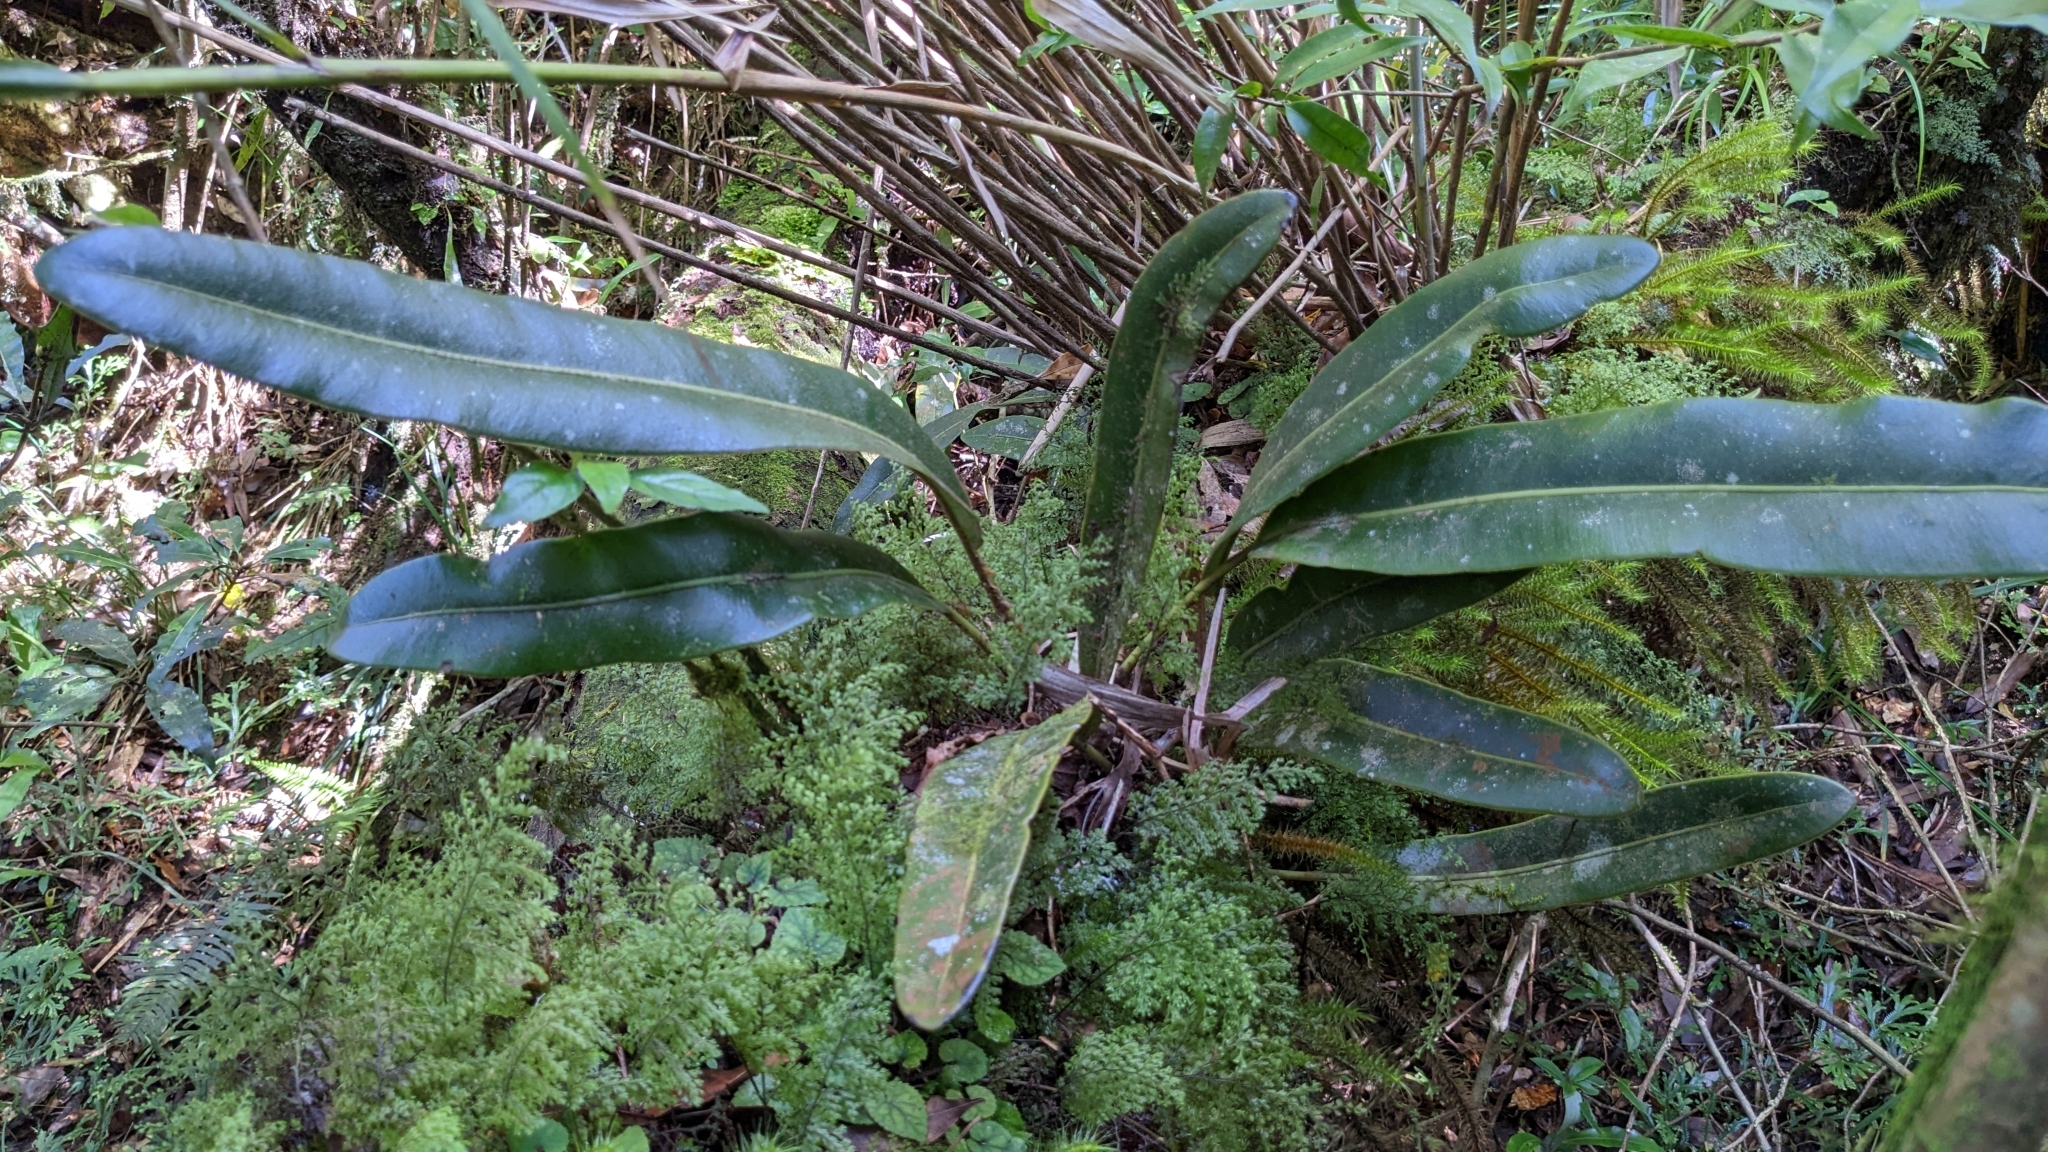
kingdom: Plantae
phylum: Tracheophyta
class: Polypodiopsida
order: Polypodiales
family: Dryopteridaceae
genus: Elaphoglossum
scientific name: Elaphoglossum luzonicum
